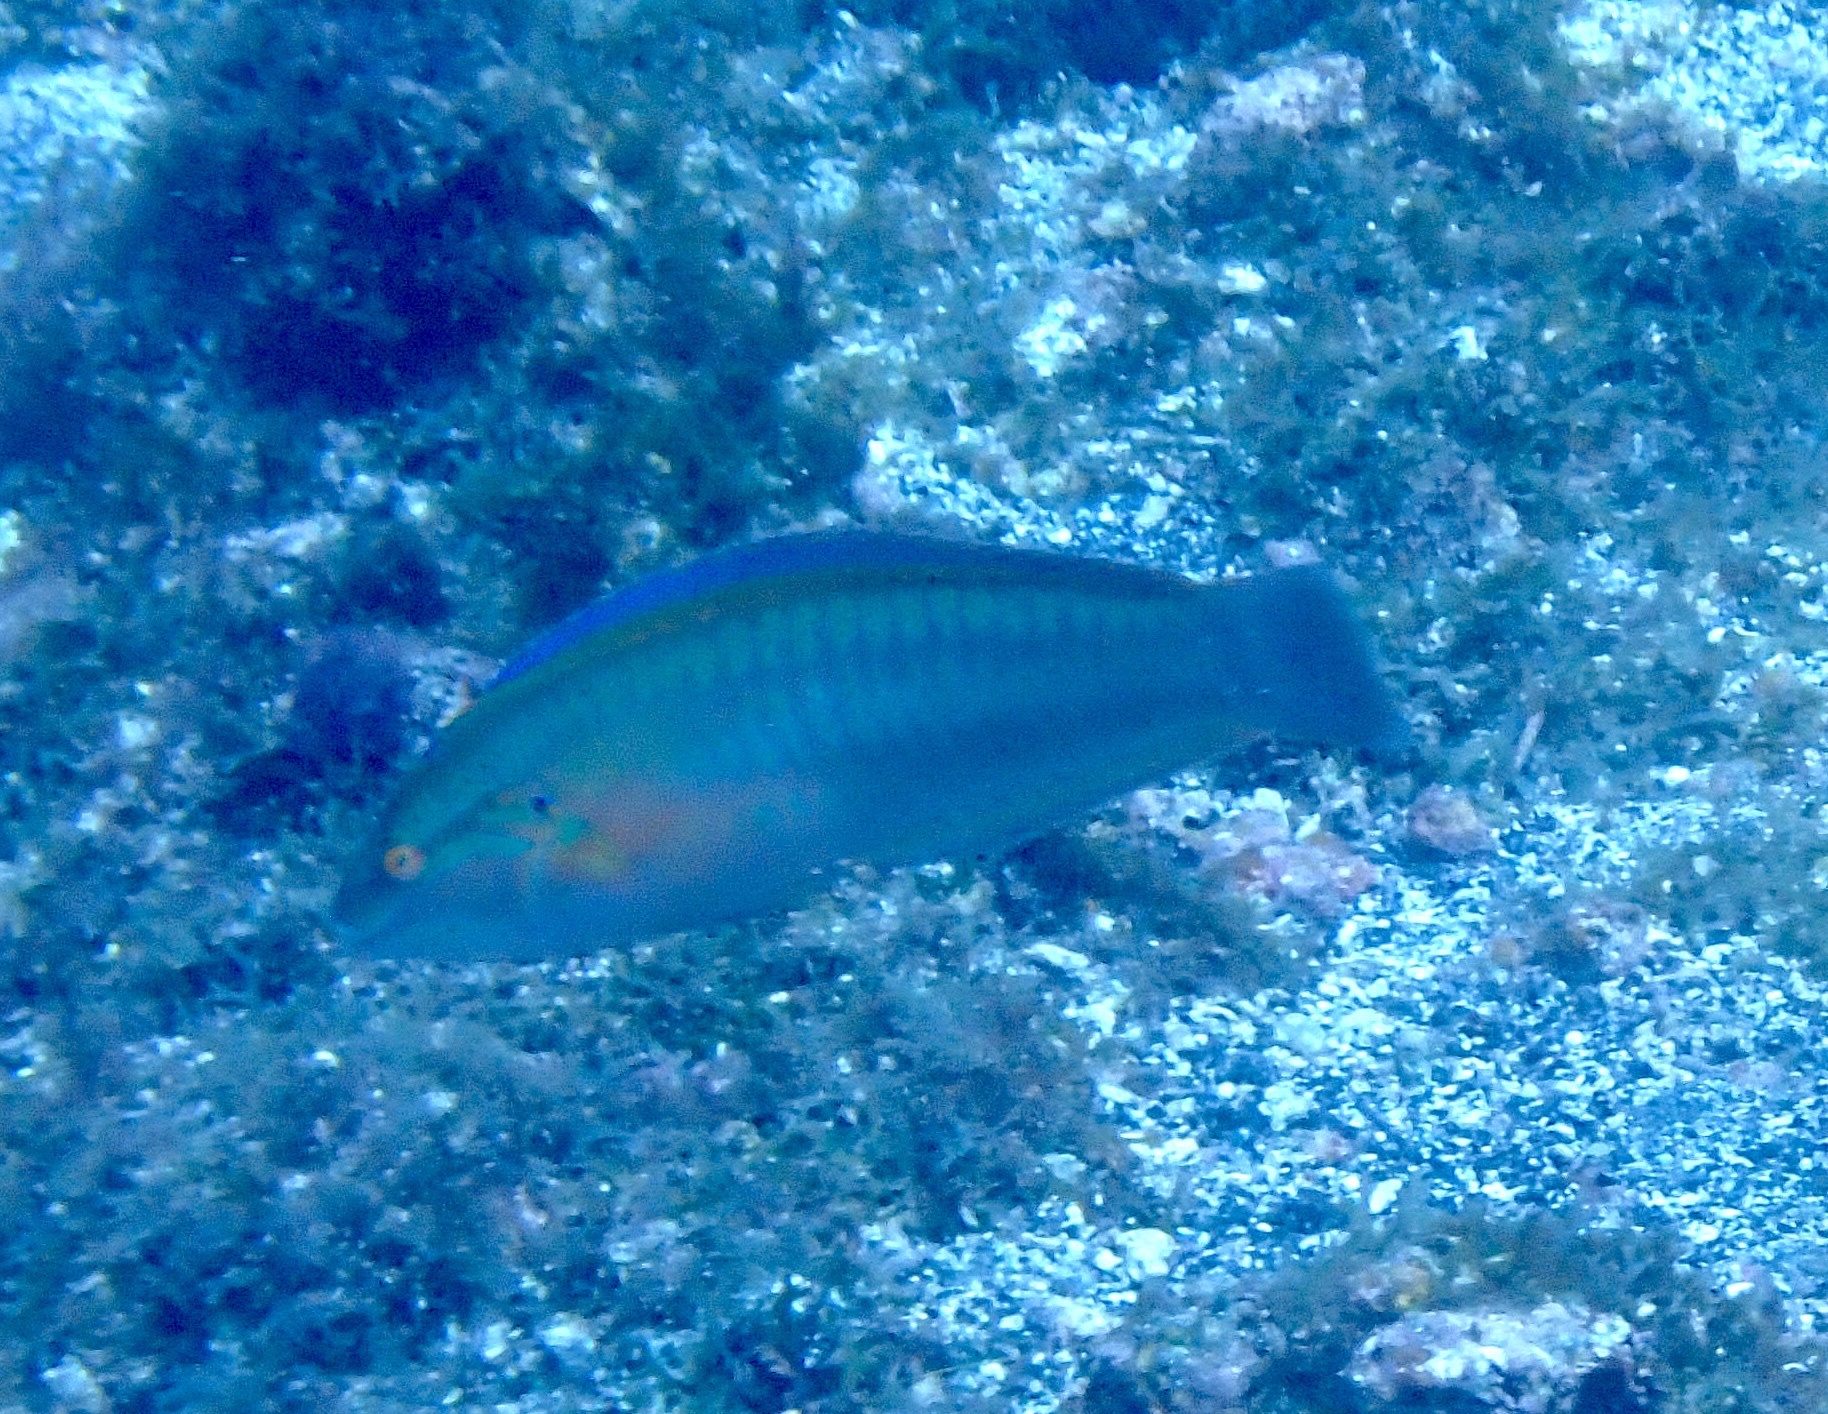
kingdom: Animalia
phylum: Chordata
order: Perciformes
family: Labridae
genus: Coris
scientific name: Coris atlantica
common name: Rainbow wrasse
